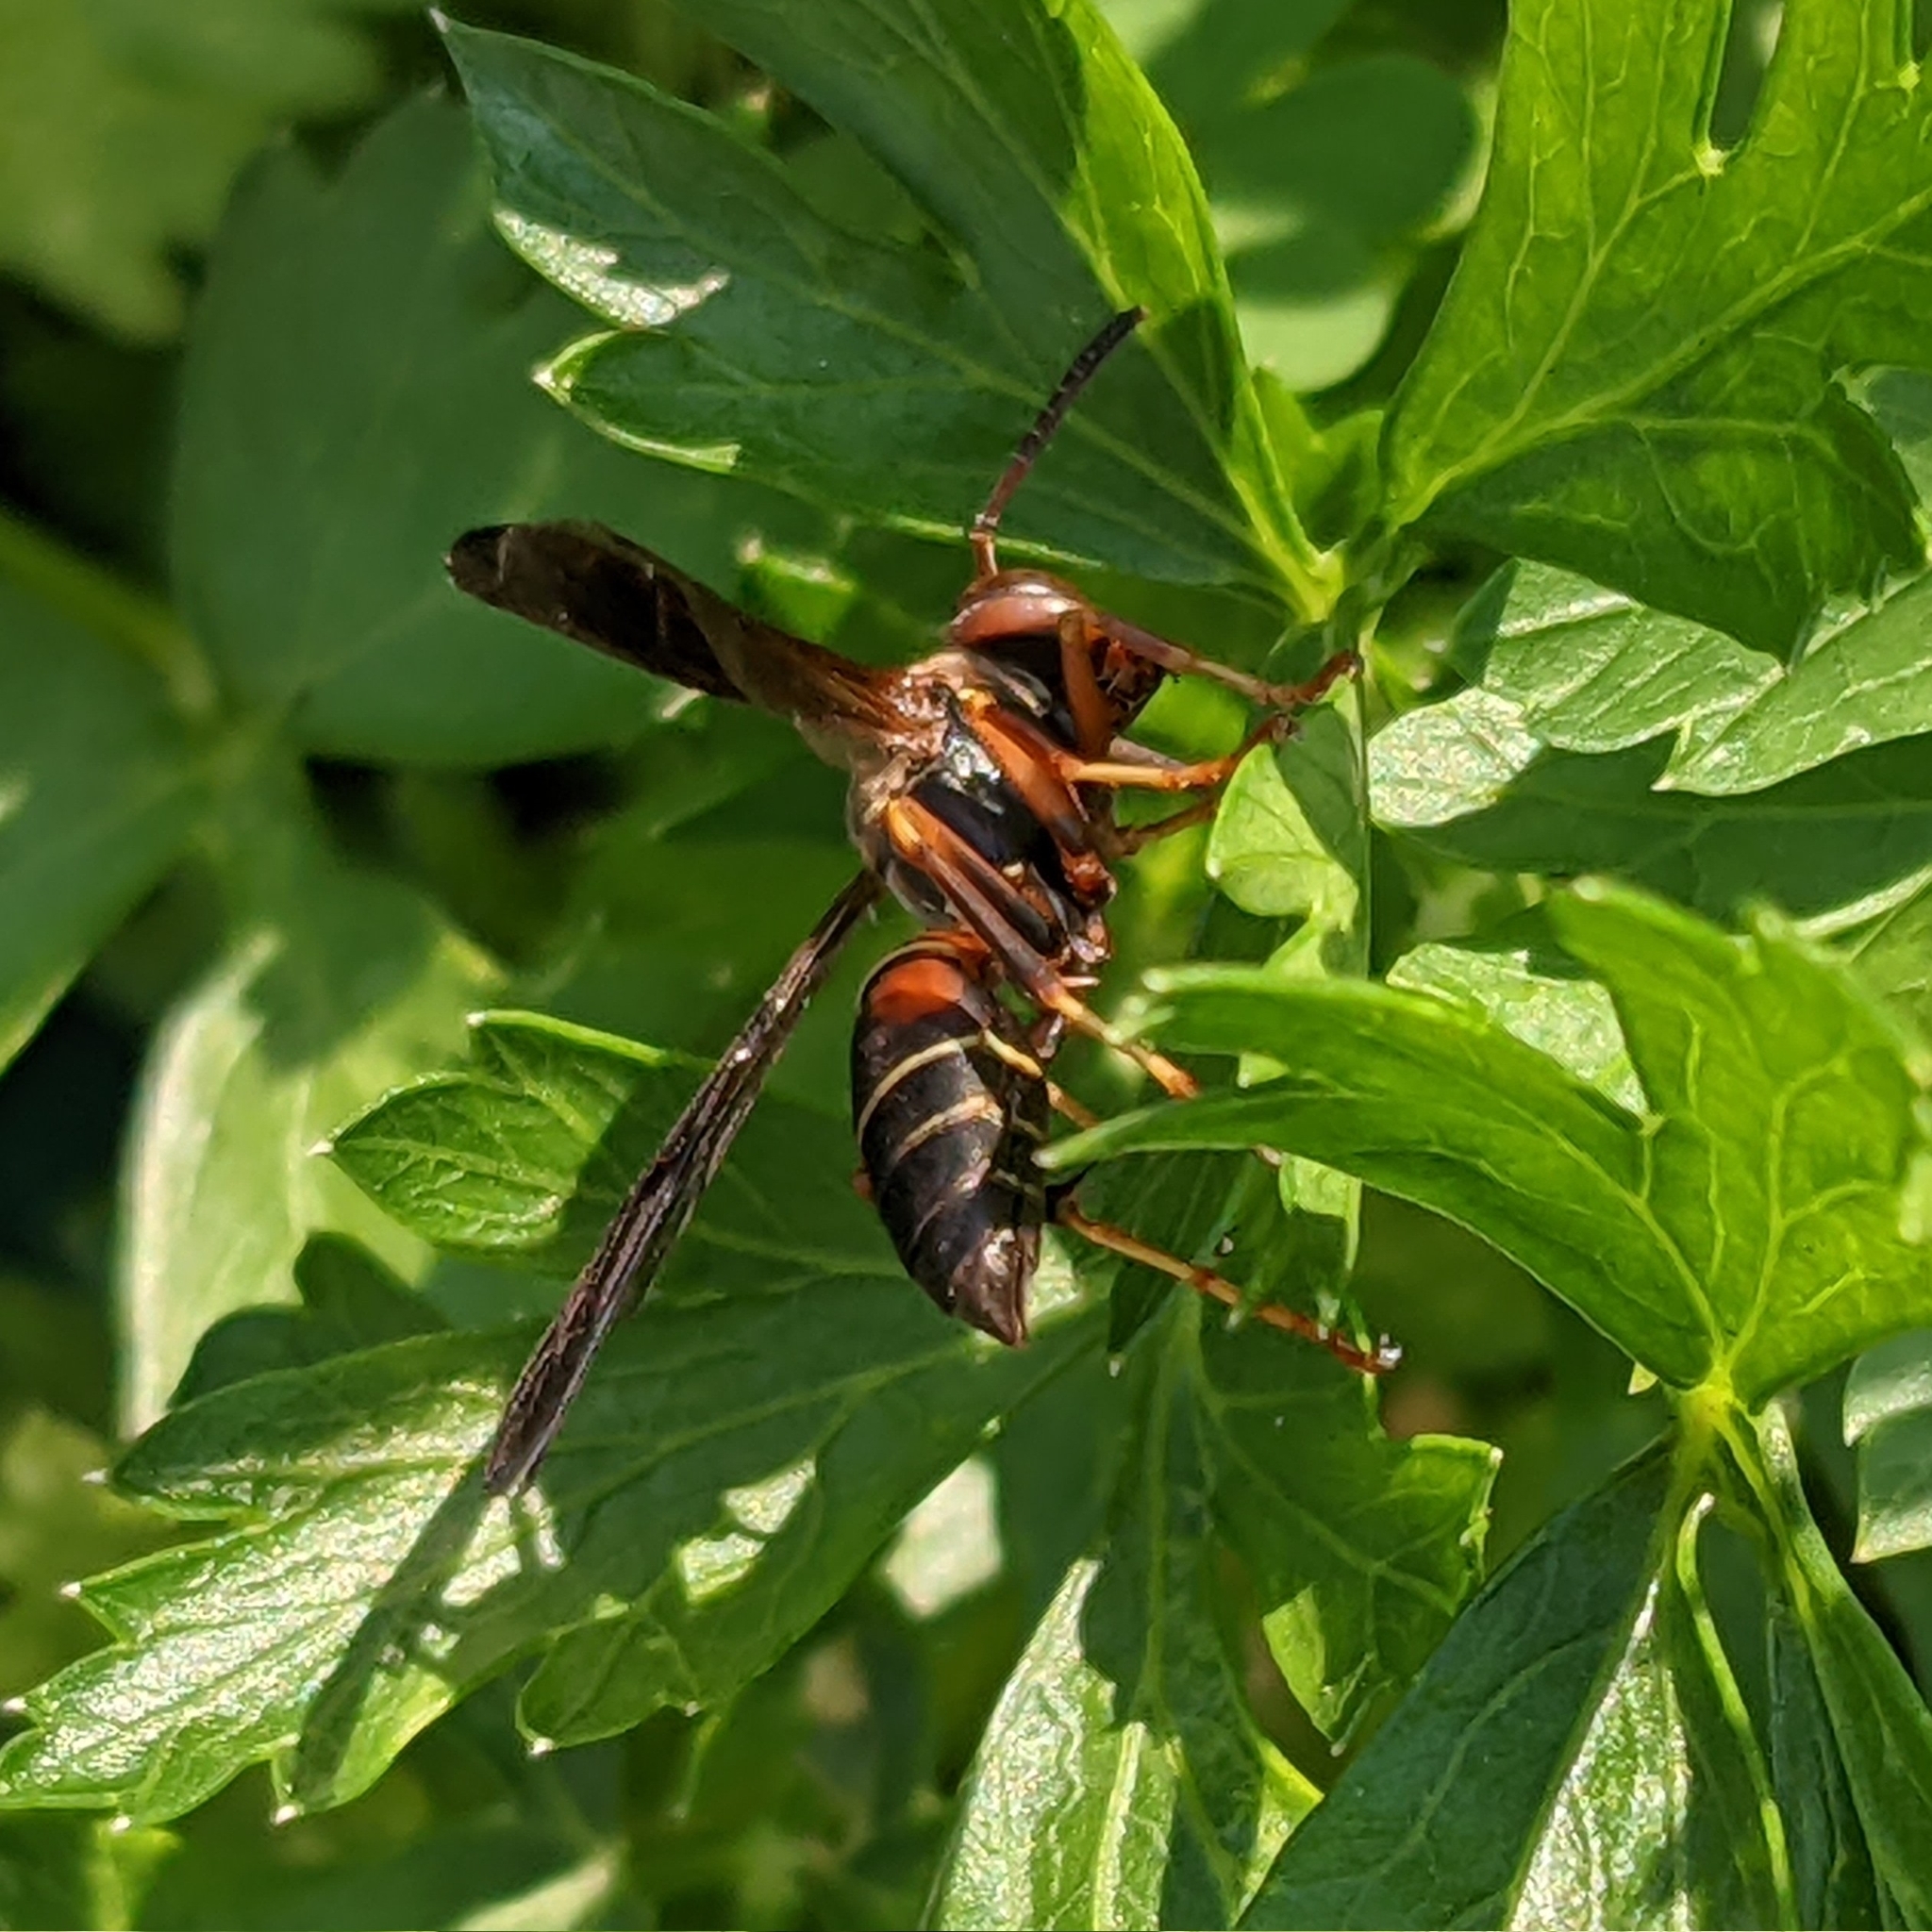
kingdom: Animalia
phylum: Arthropoda
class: Insecta
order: Hymenoptera
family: Eumenidae
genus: Polistes
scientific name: Polistes fuscatus
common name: Dark paper wasp
